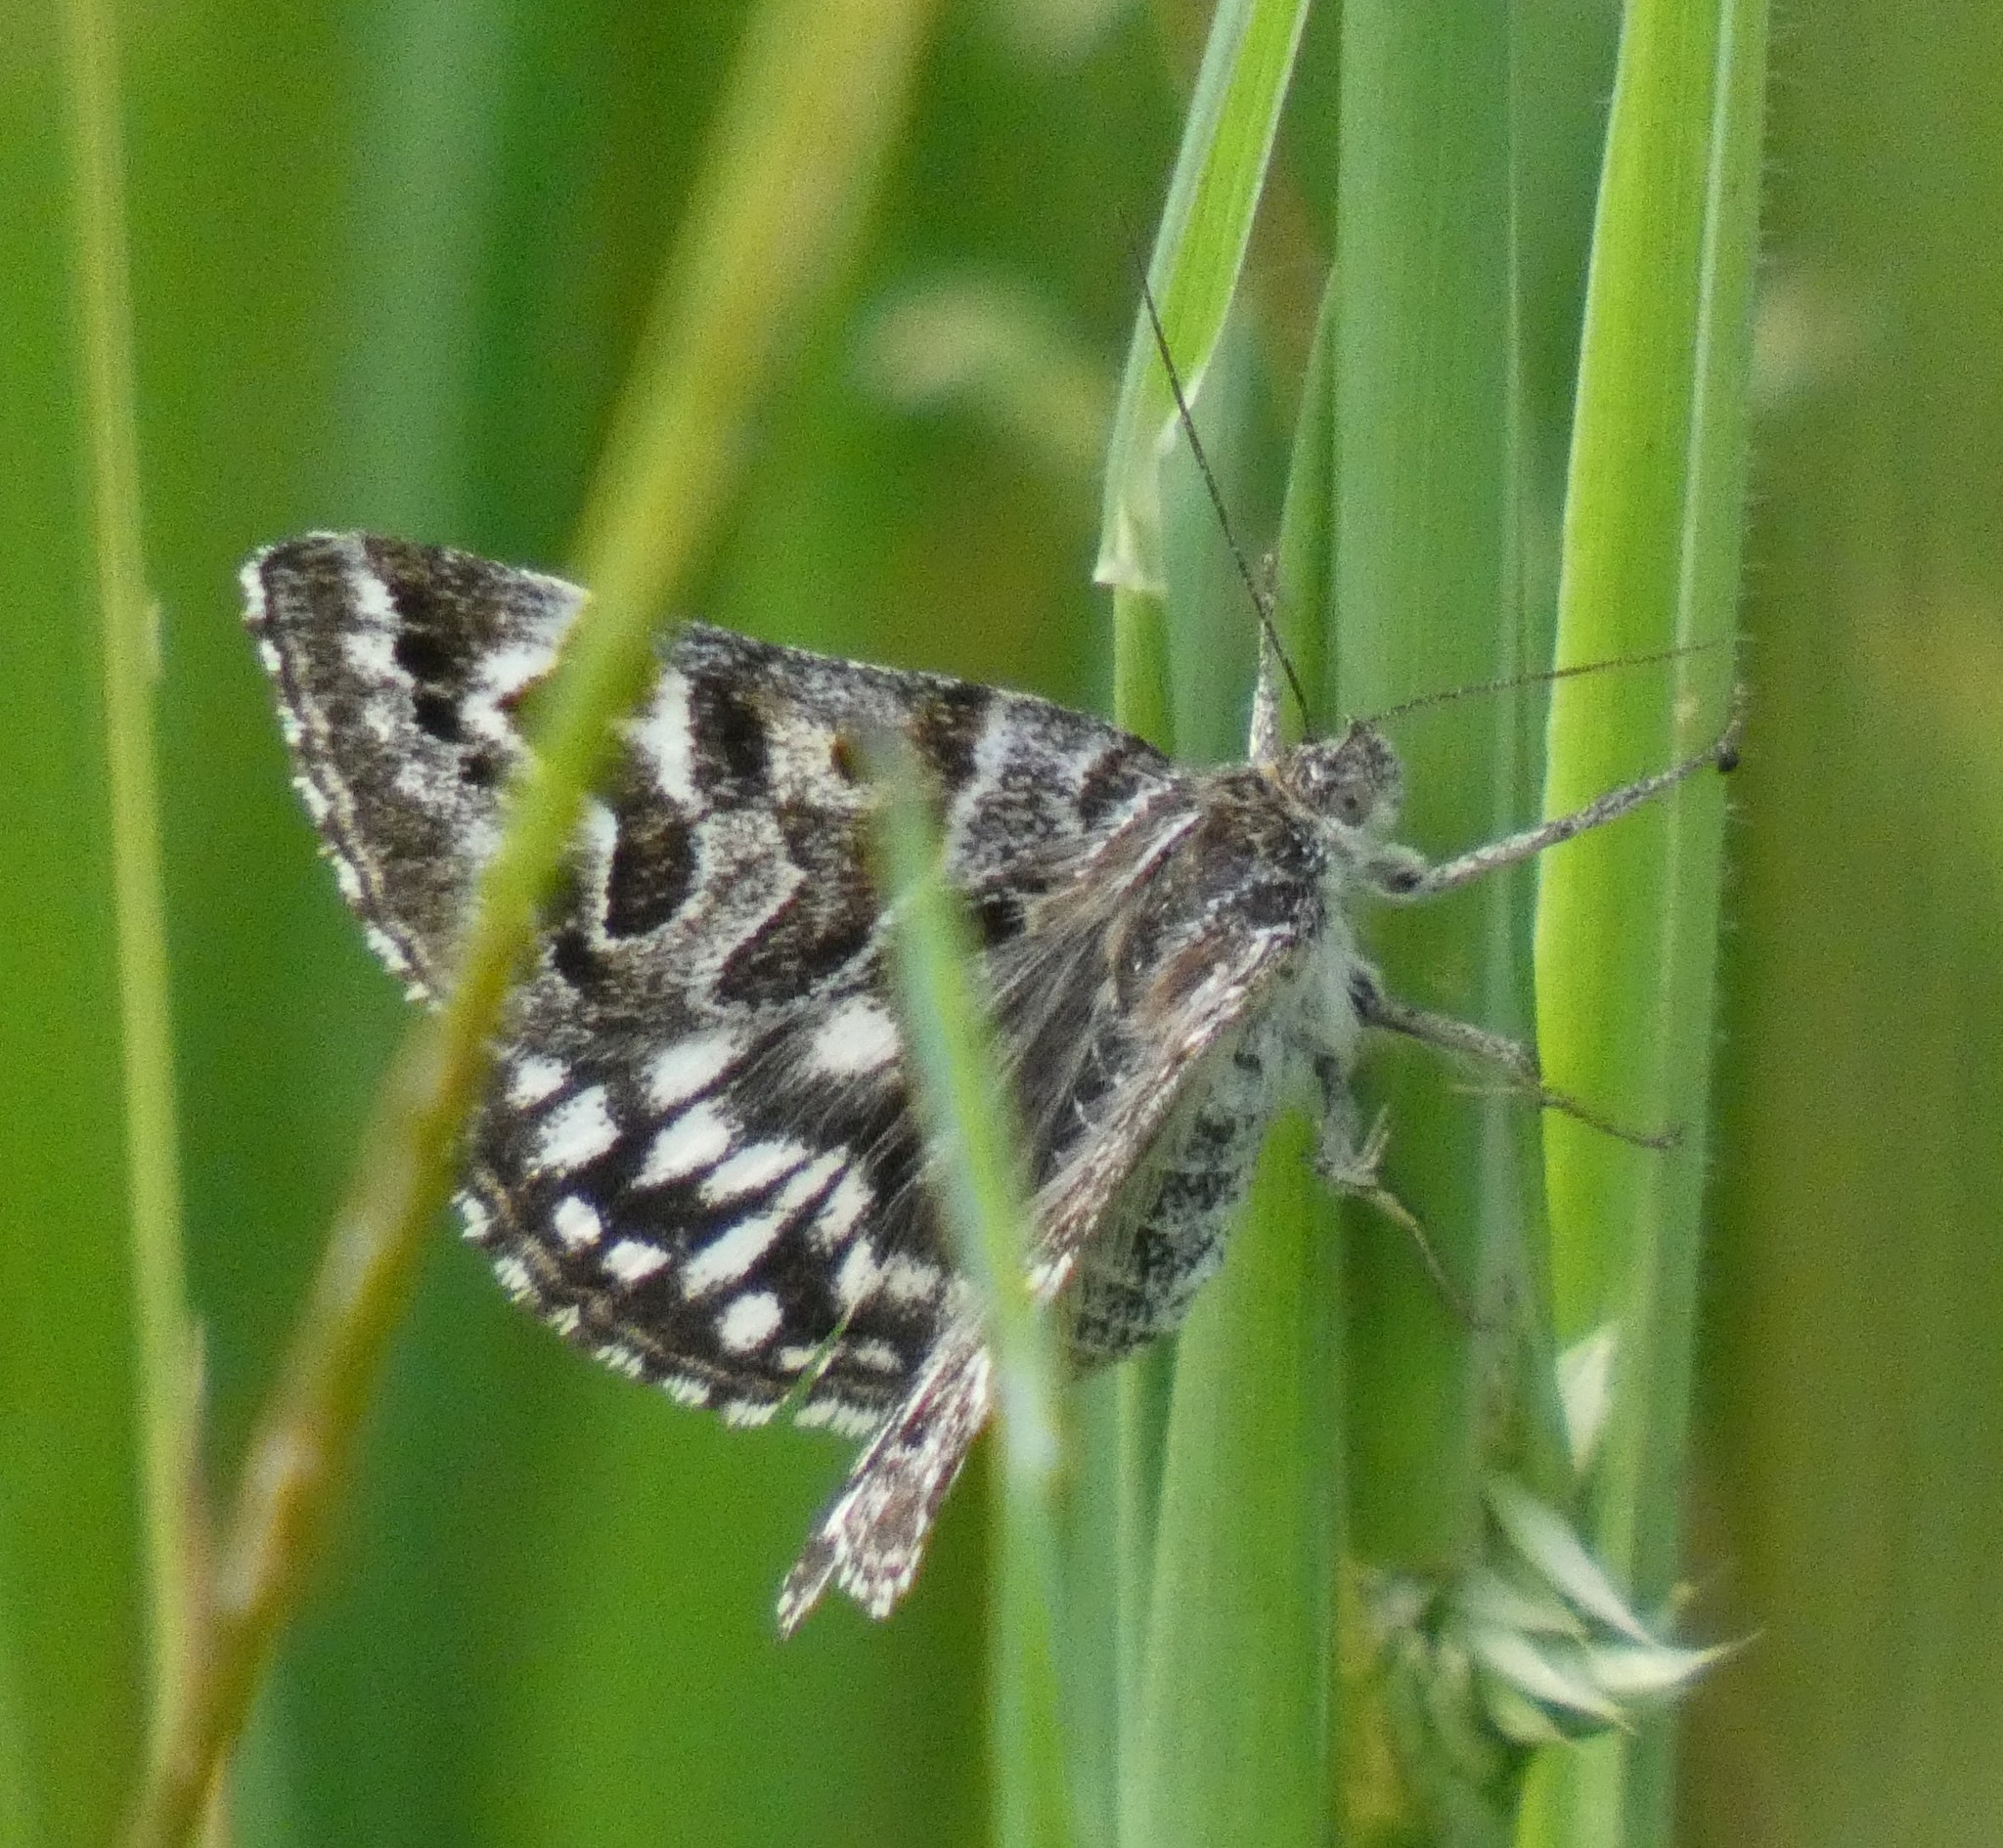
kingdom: Animalia
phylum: Arthropoda
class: Insecta
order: Lepidoptera
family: Erebidae
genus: Callistege
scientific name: Callistege mi
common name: Mother shipton
